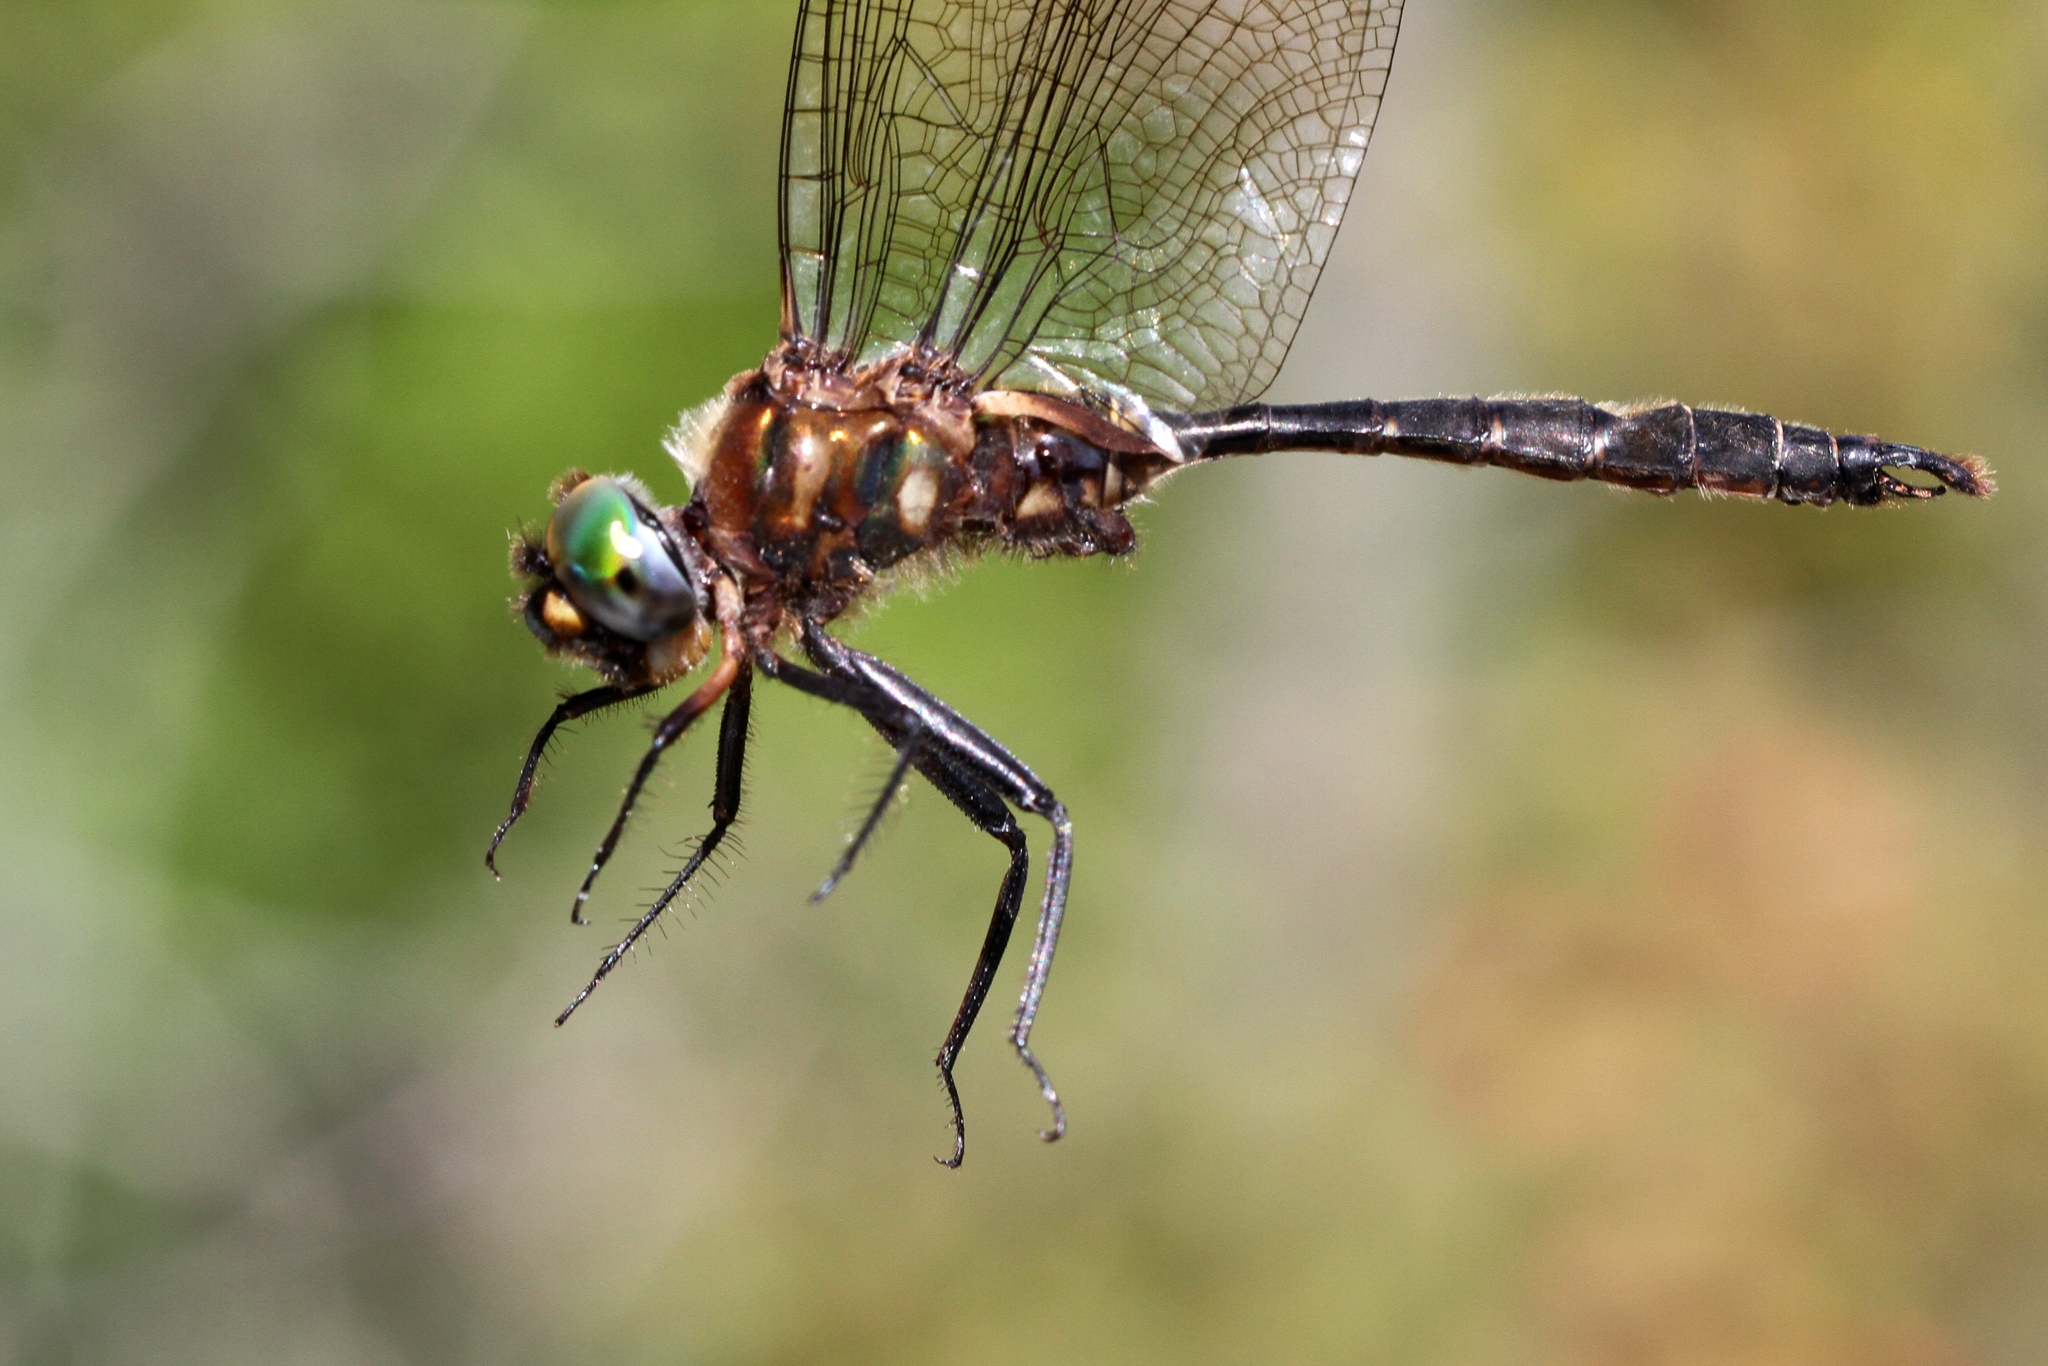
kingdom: Animalia
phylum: Arthropoda
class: Insecta
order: Odonata
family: Corduliidae
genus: Somatochlora
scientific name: Somatochlora walshii
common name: Brush-tipped emerald
